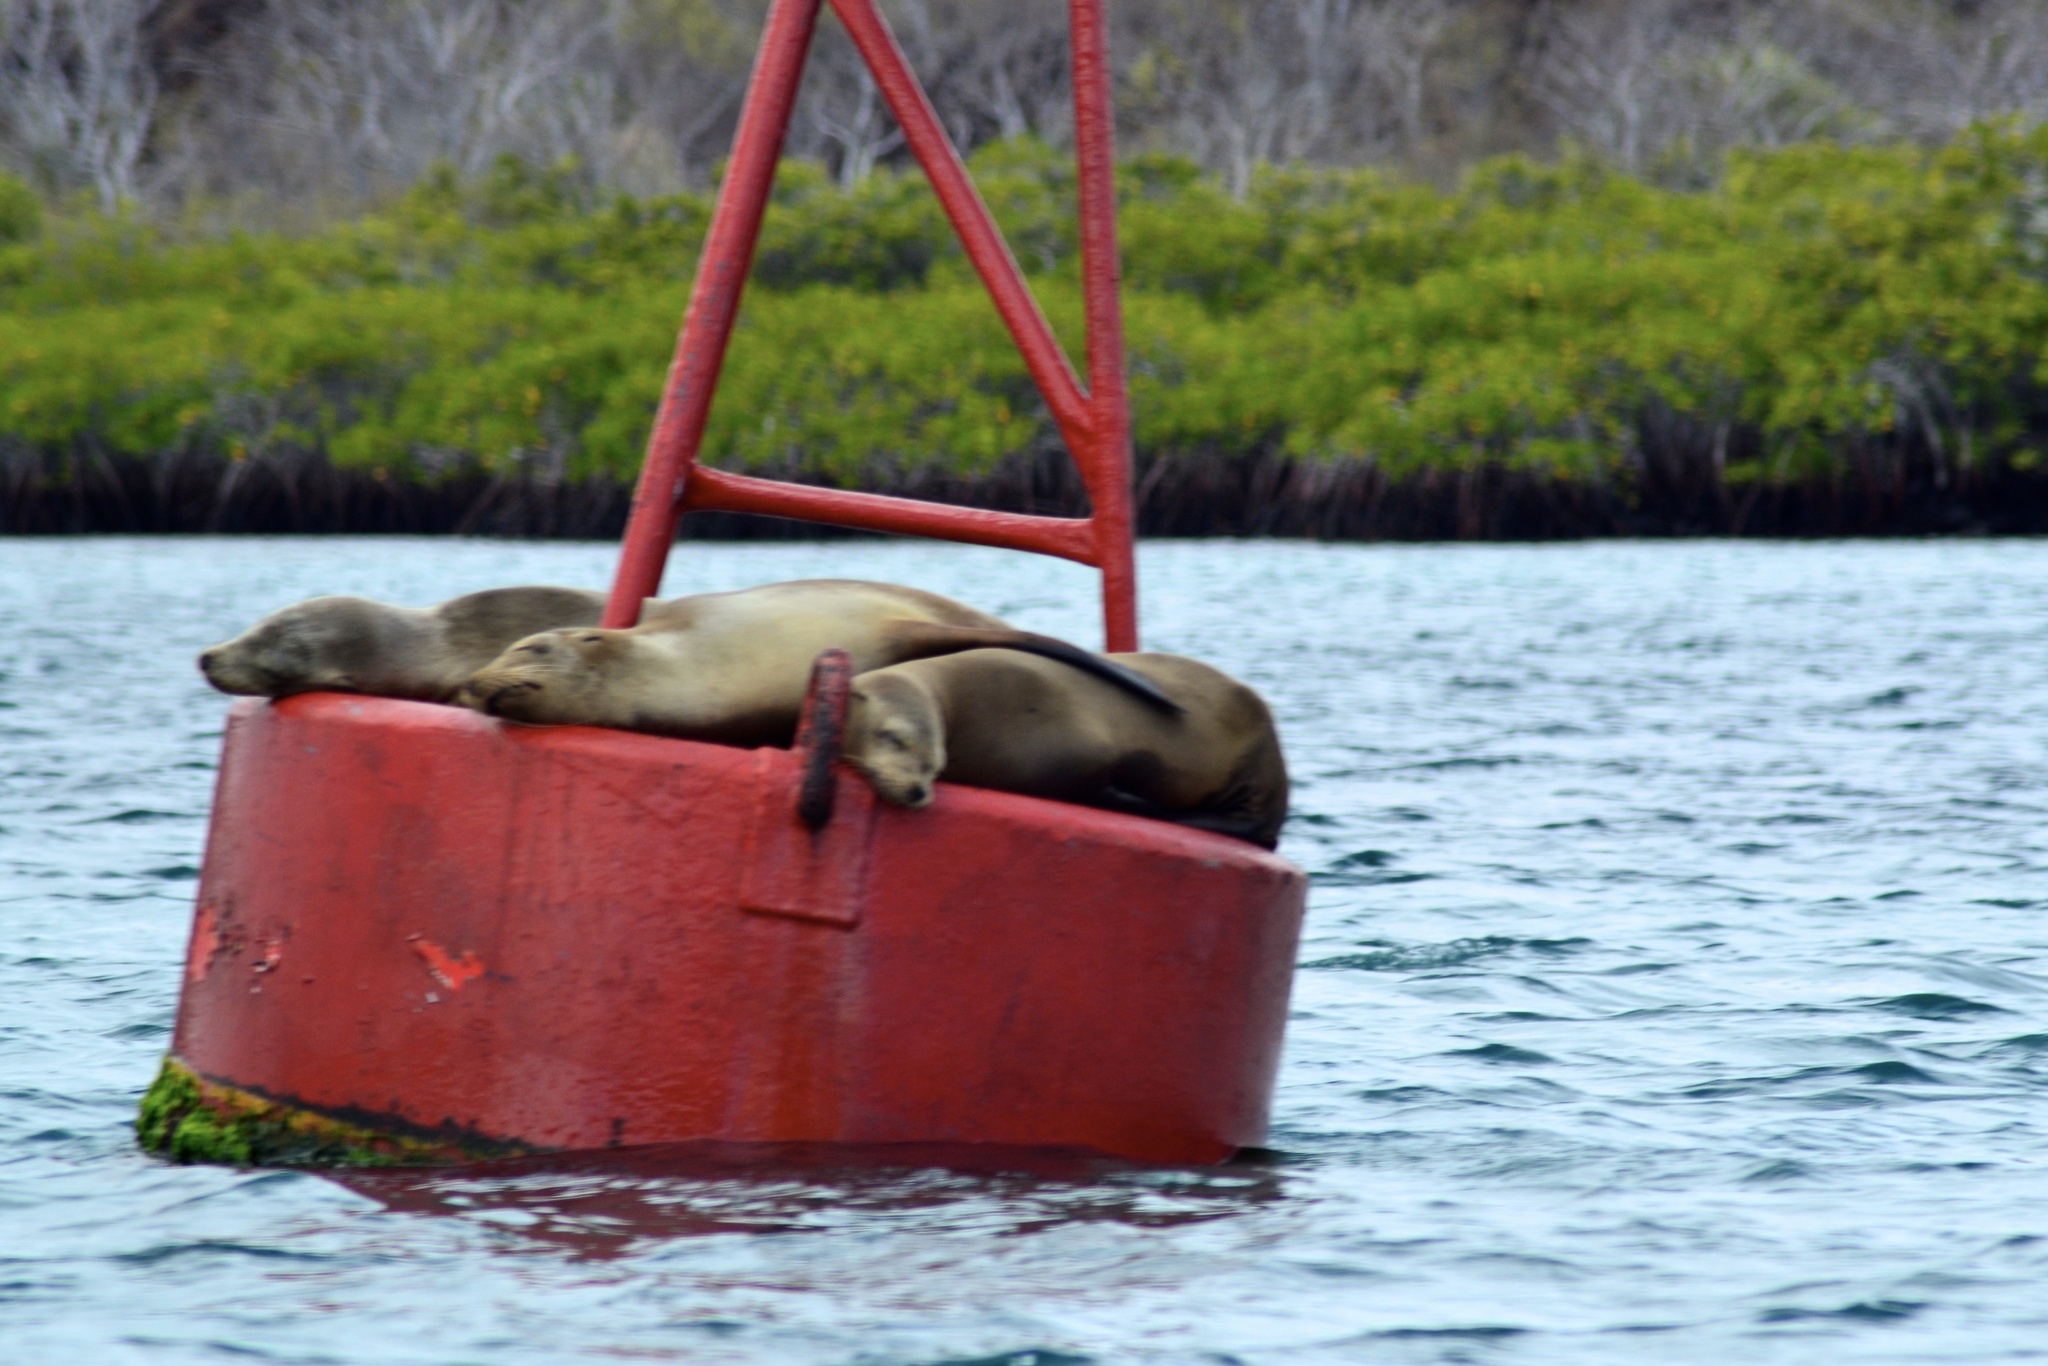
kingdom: Animalia
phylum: Chordata
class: Mammalia
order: Carnivora
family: Otariidae
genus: Zalophus
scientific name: Zalophus wollebaeki
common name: Galapagos sea lion
